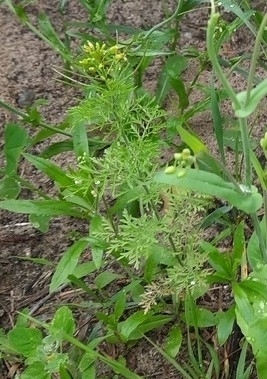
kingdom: Plantae
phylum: Tracheophyta
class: Magnoliopsida
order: Brassicales
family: Brassicaceae
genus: Descurainia
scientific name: Descurainia sophia
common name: Flixweed
